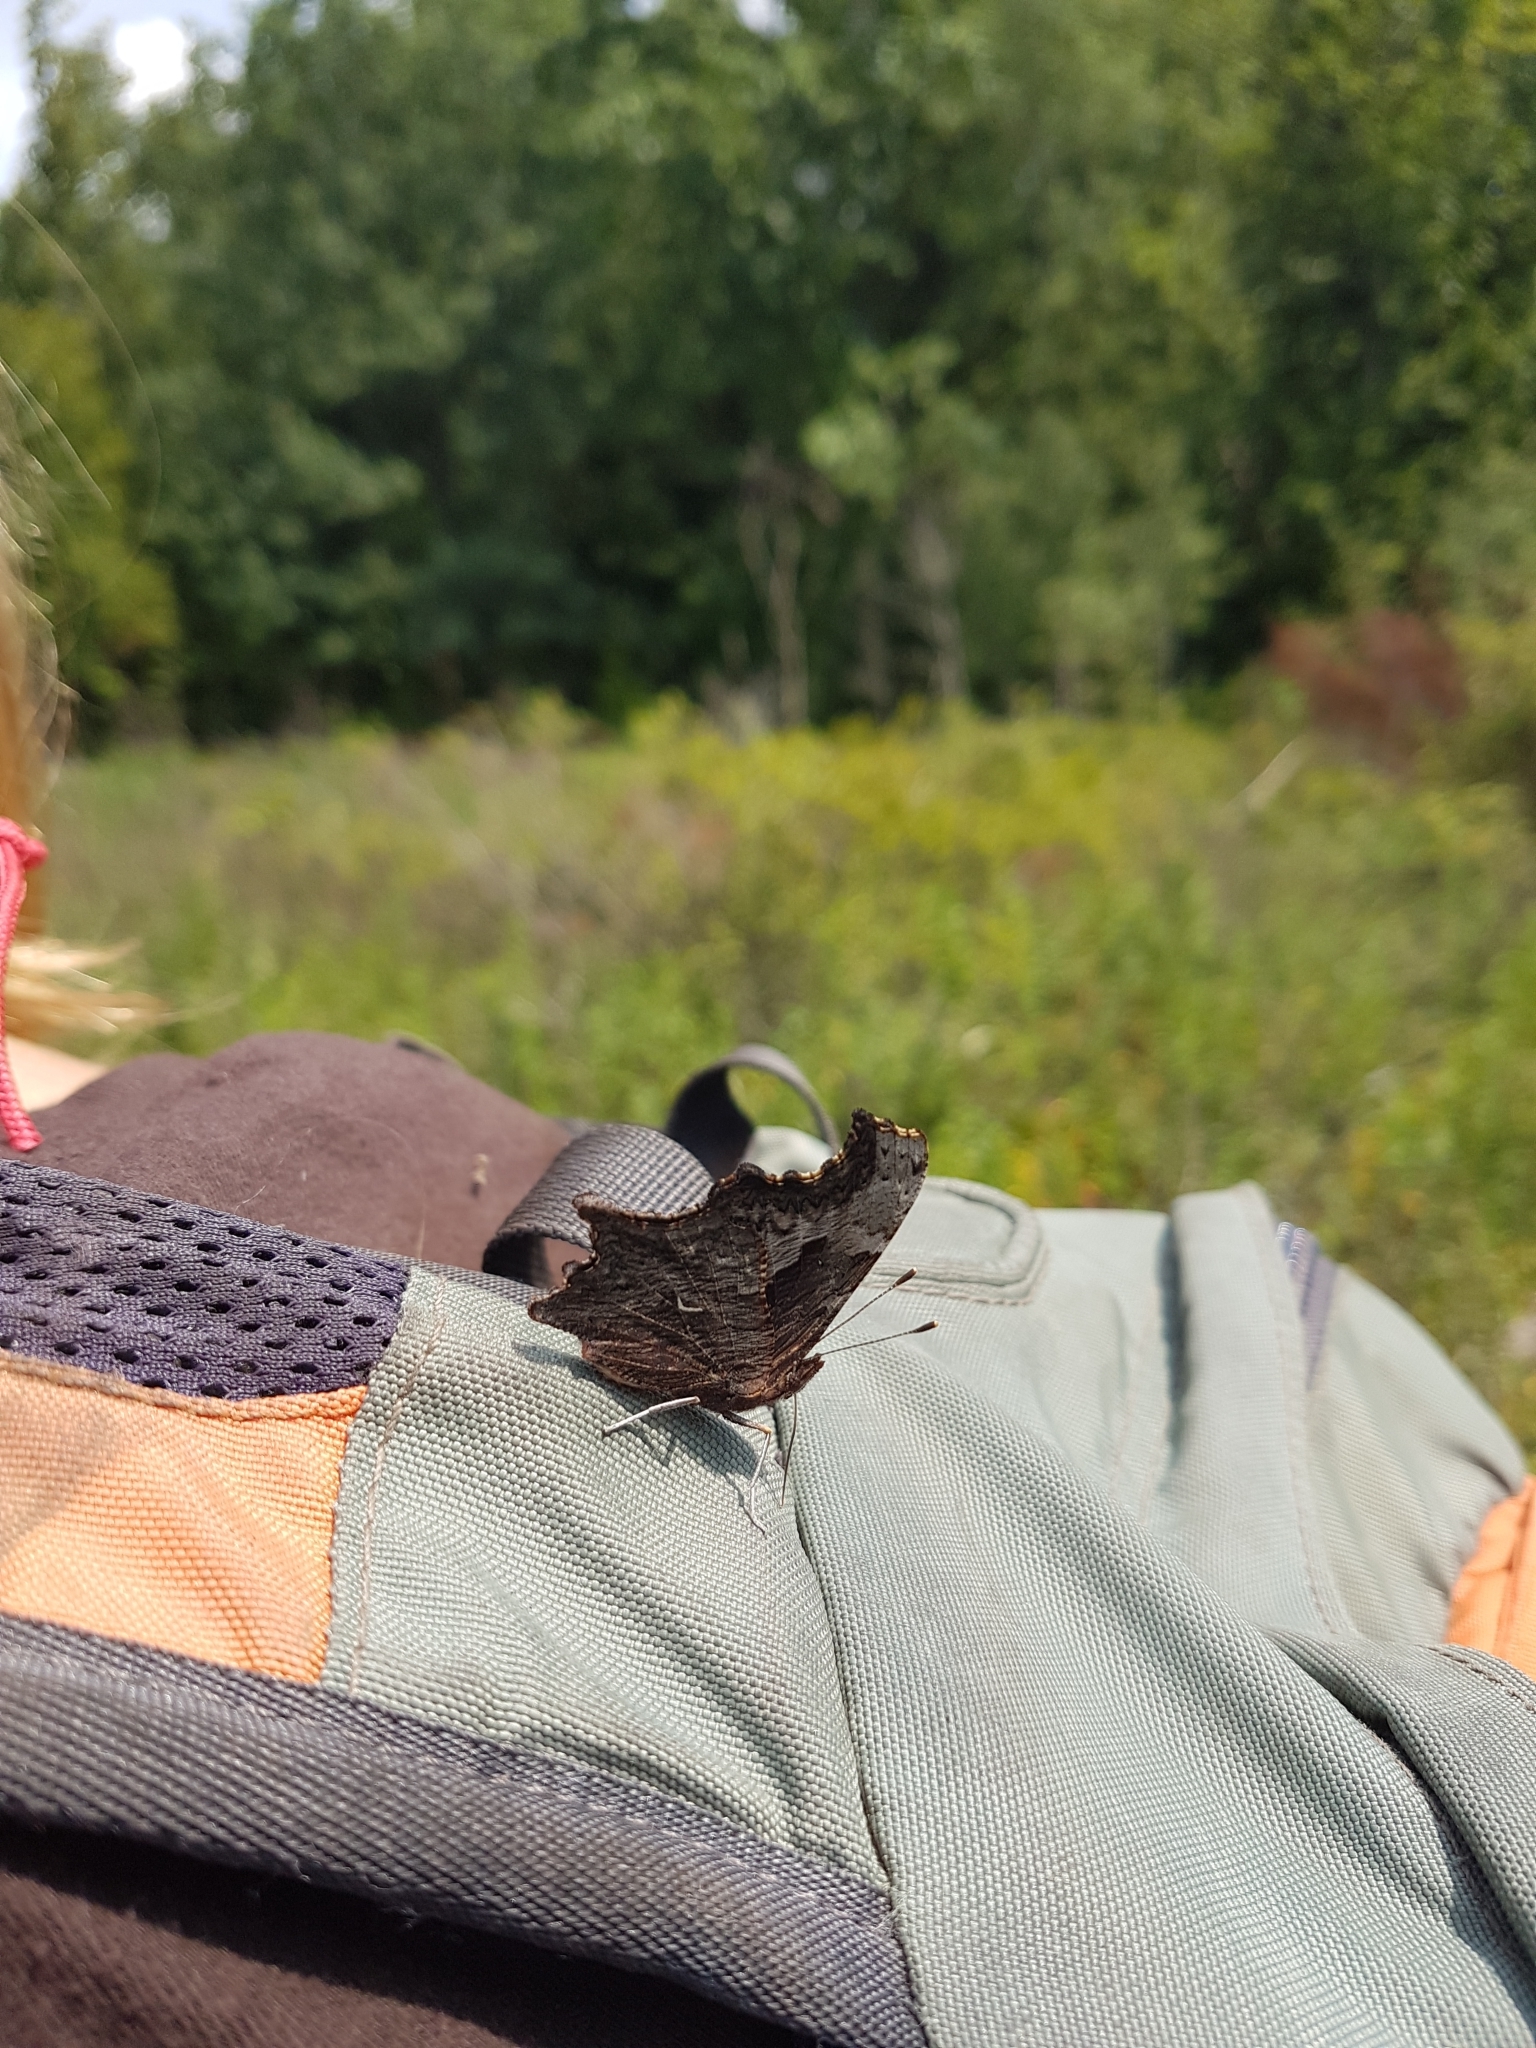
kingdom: Animalia
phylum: Arthropoda
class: Insecta
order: Lepidoptera
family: Nymphalidae
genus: Polygonia
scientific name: Polygonia progne
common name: Gray comma
